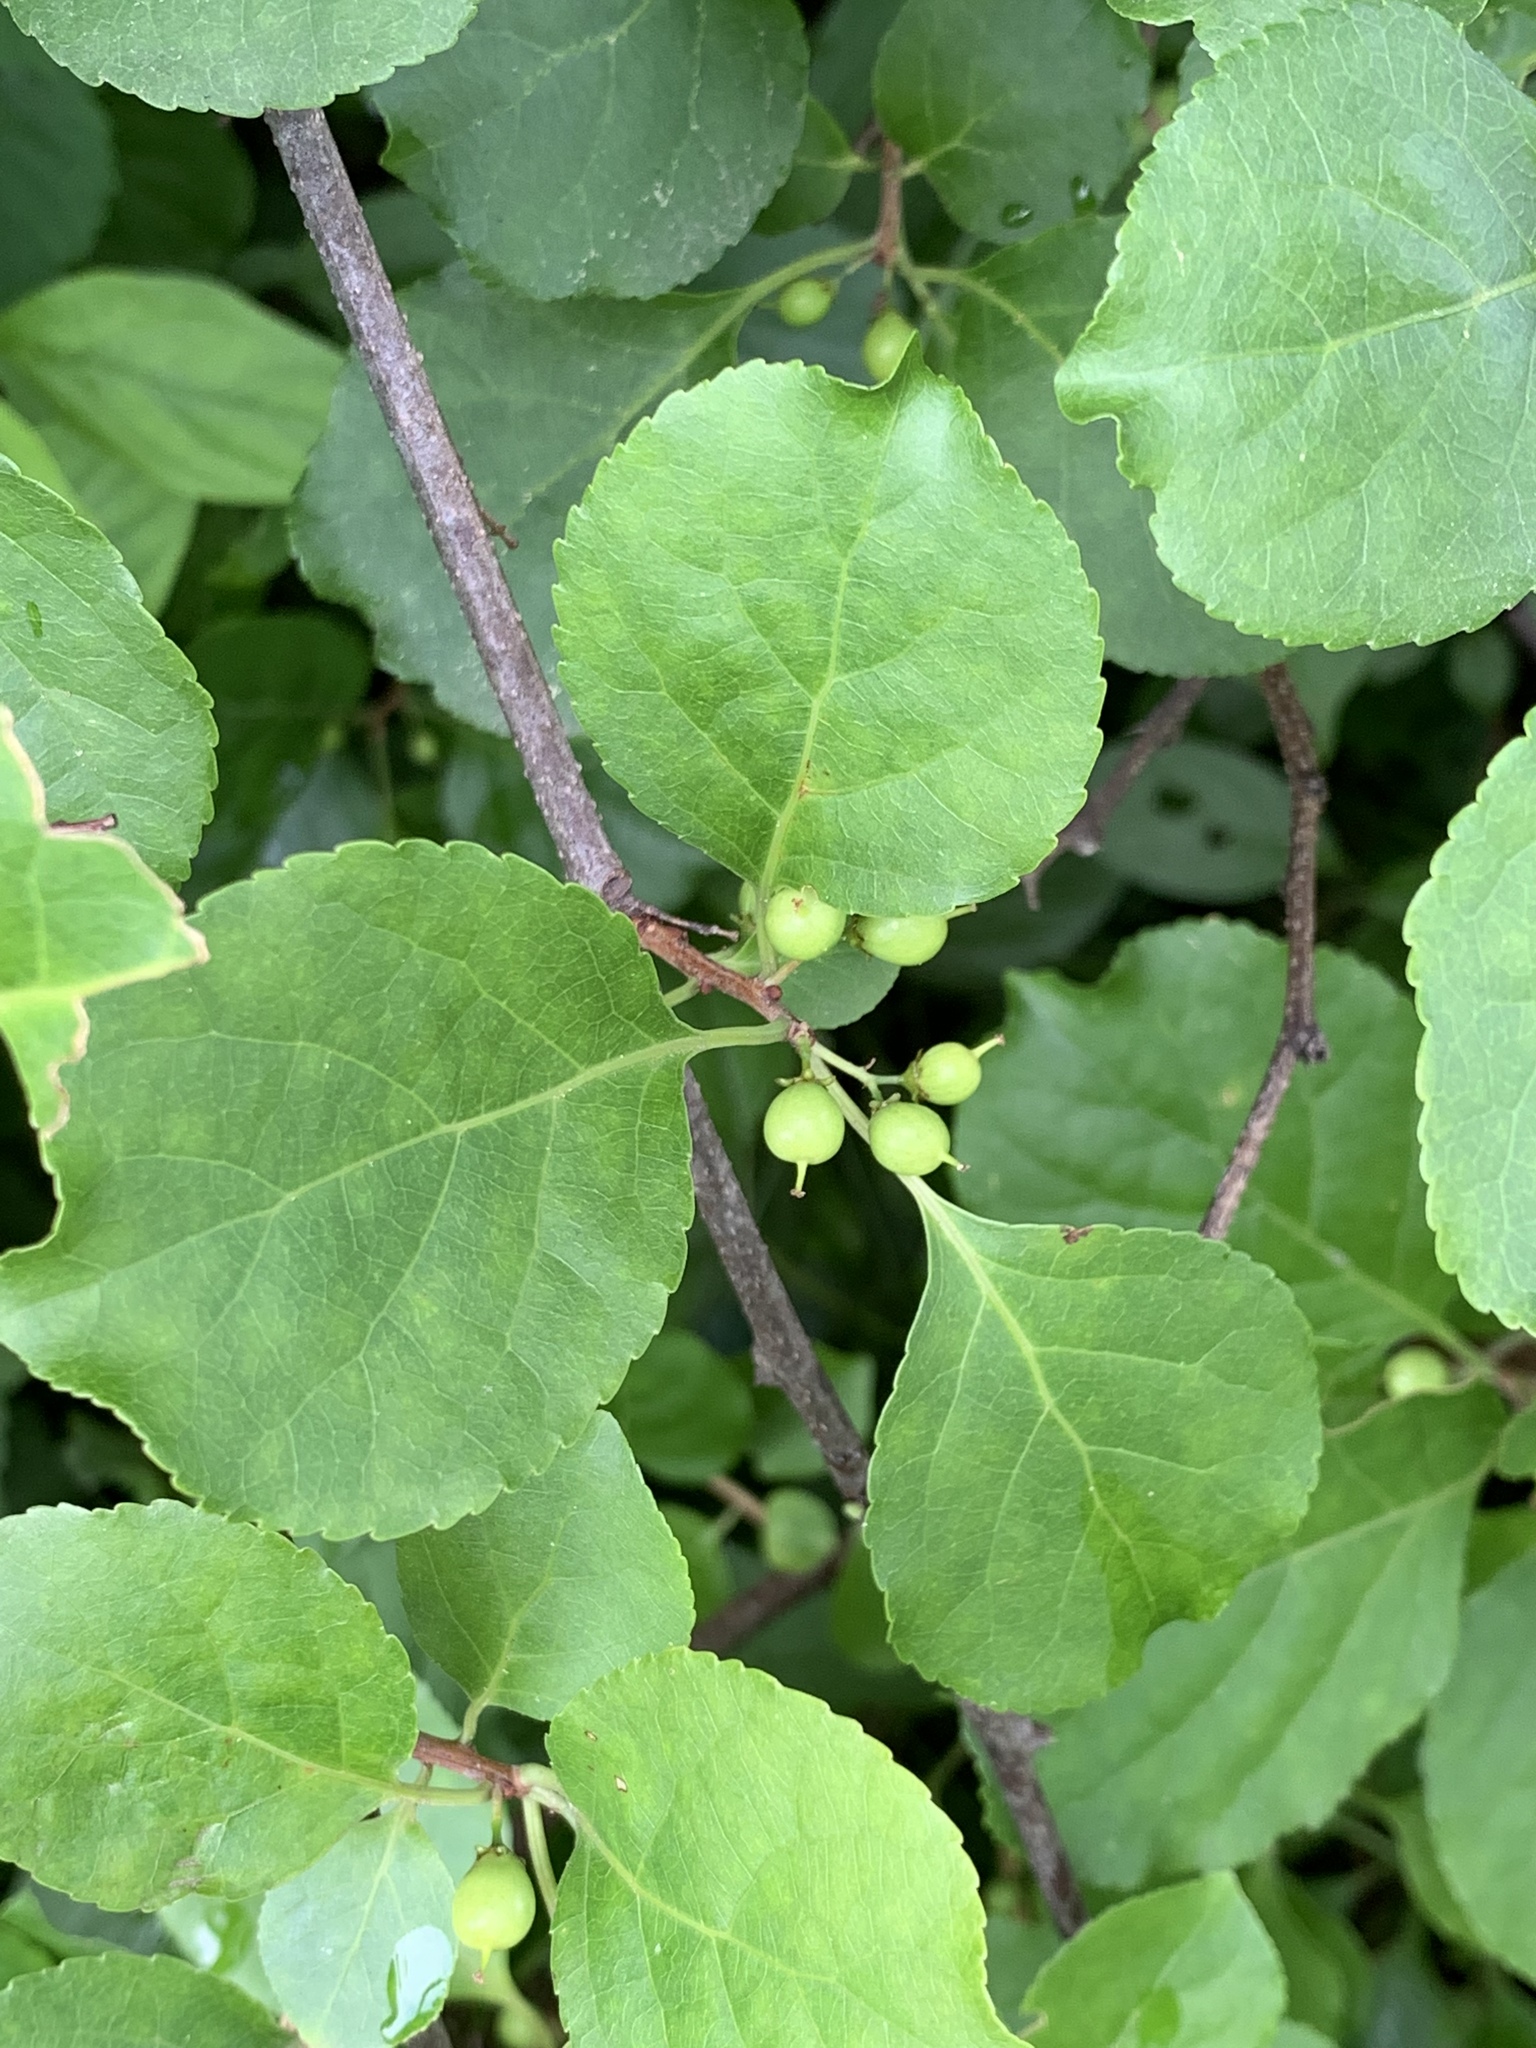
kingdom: Plantae
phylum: Tracheophyta
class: Magnoliopsida
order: Celastrales
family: Celastraceae
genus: Celastrus
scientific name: Celastrus orbiculatus
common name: Oriental bittersweet
